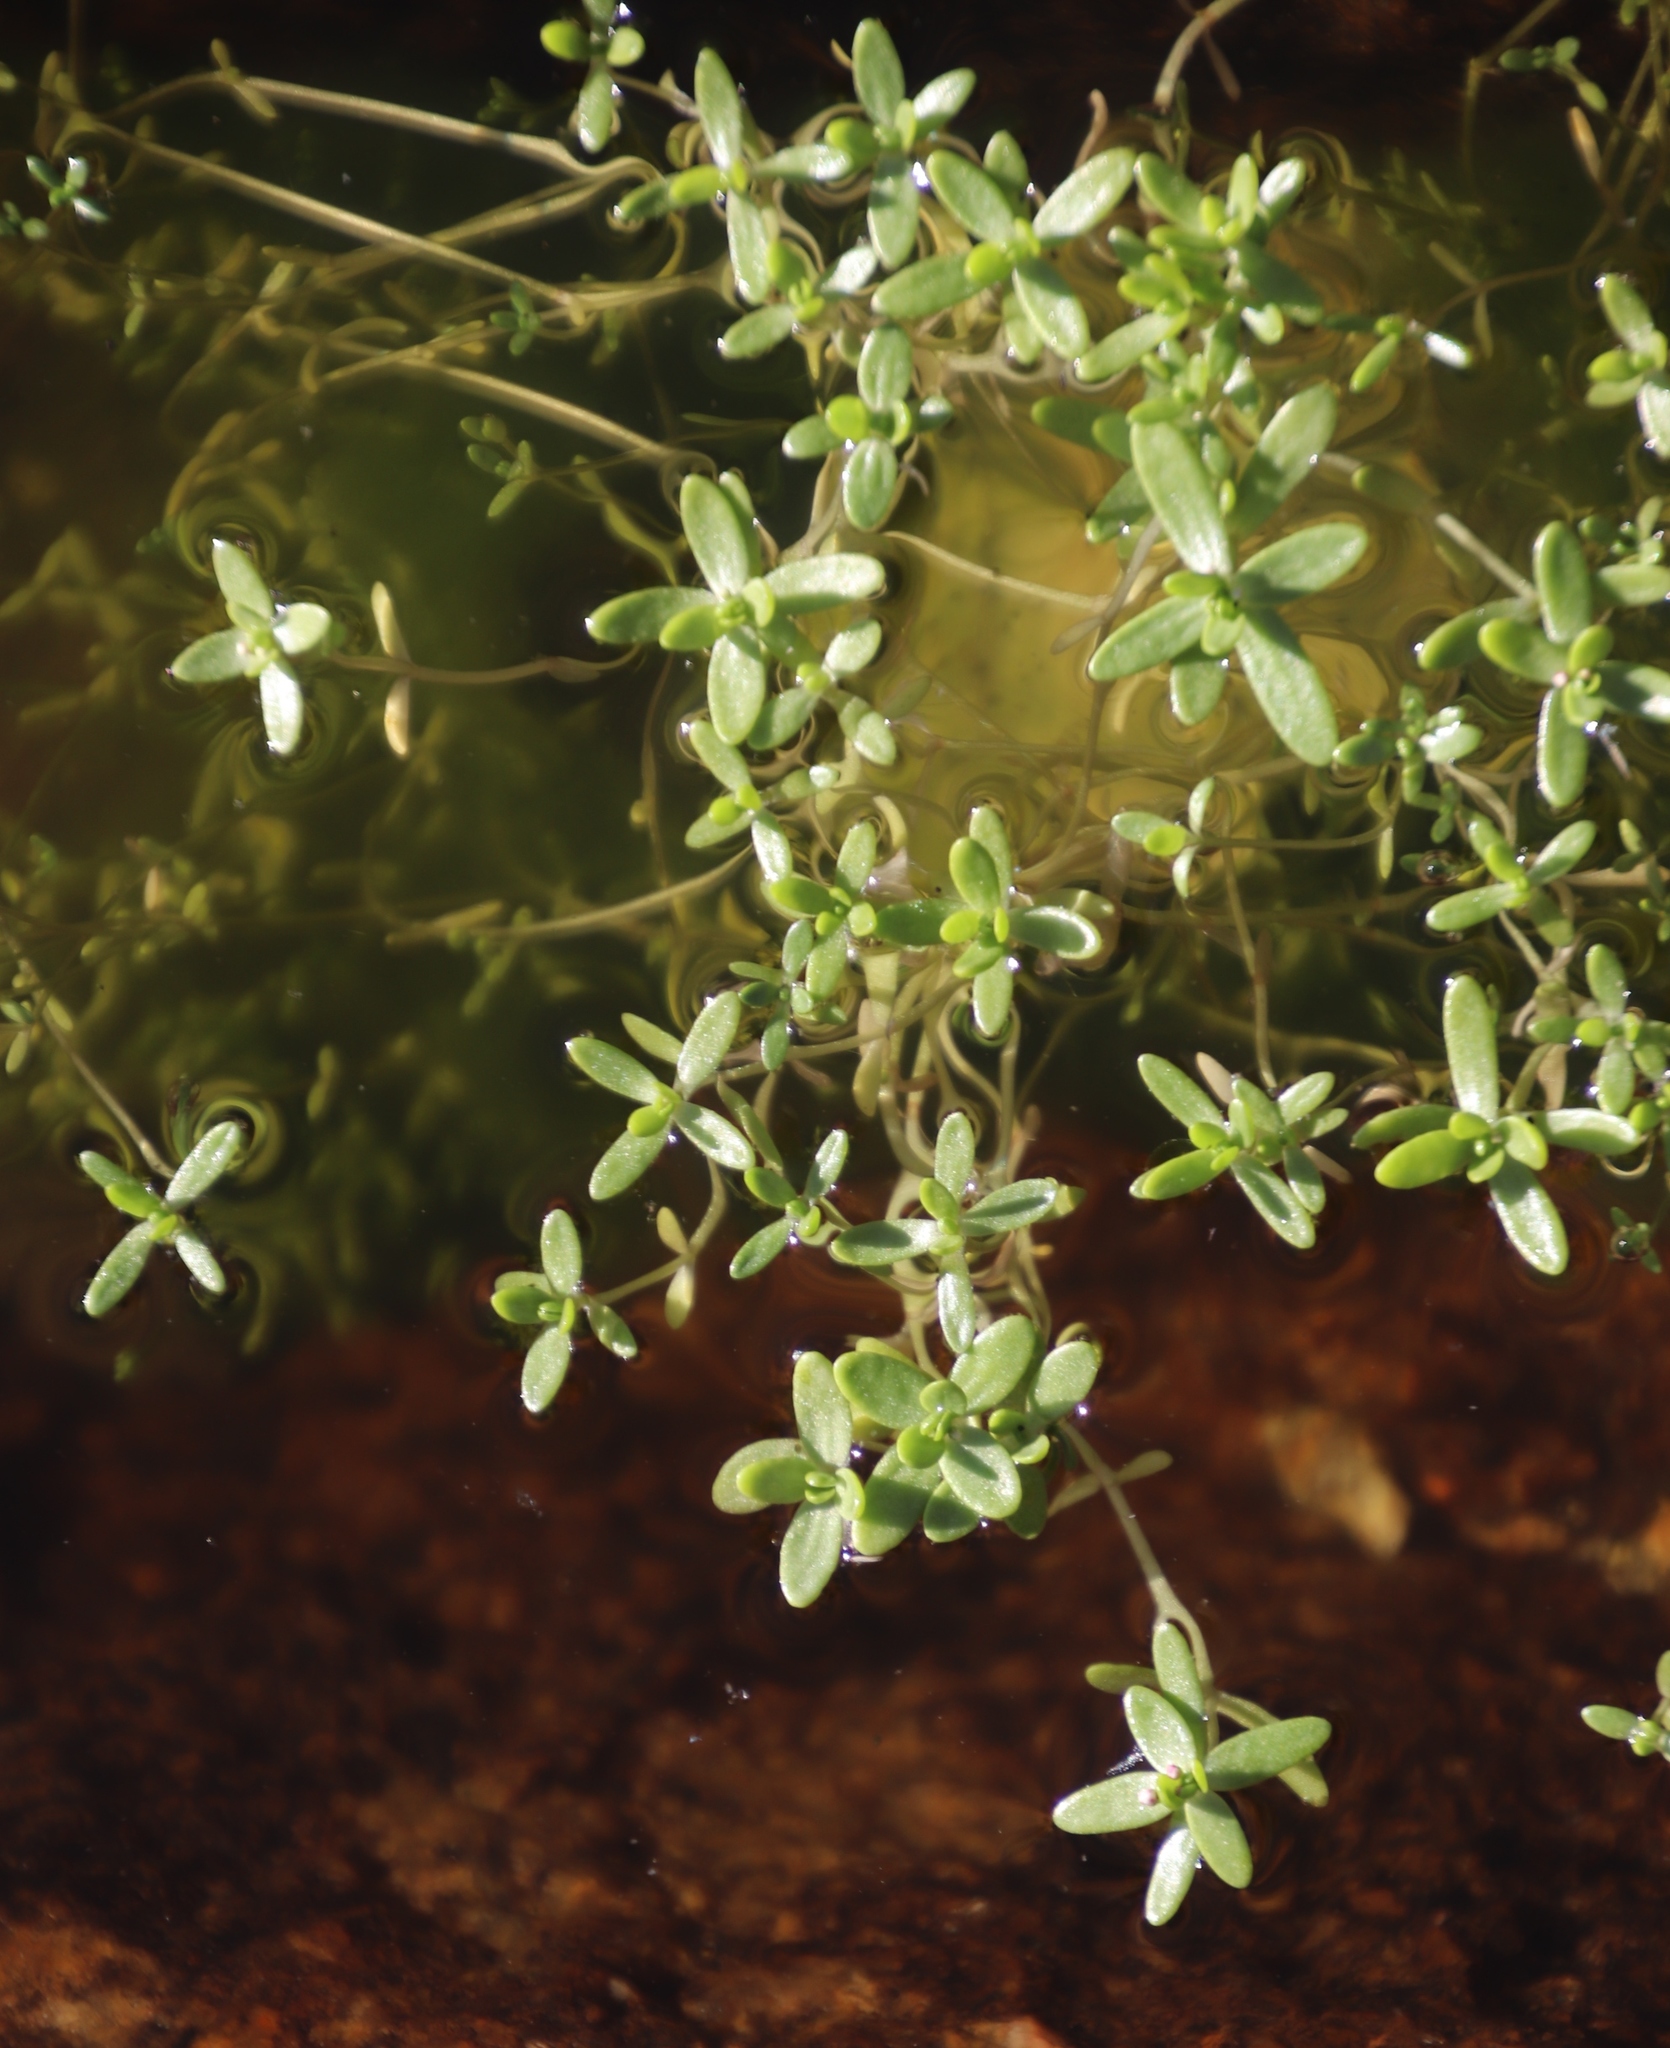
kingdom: Plantae
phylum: Tracheophyta
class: Magnoliopsida
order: Saxifragales
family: Crassulaceae
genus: Crassula
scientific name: Crassula natans
